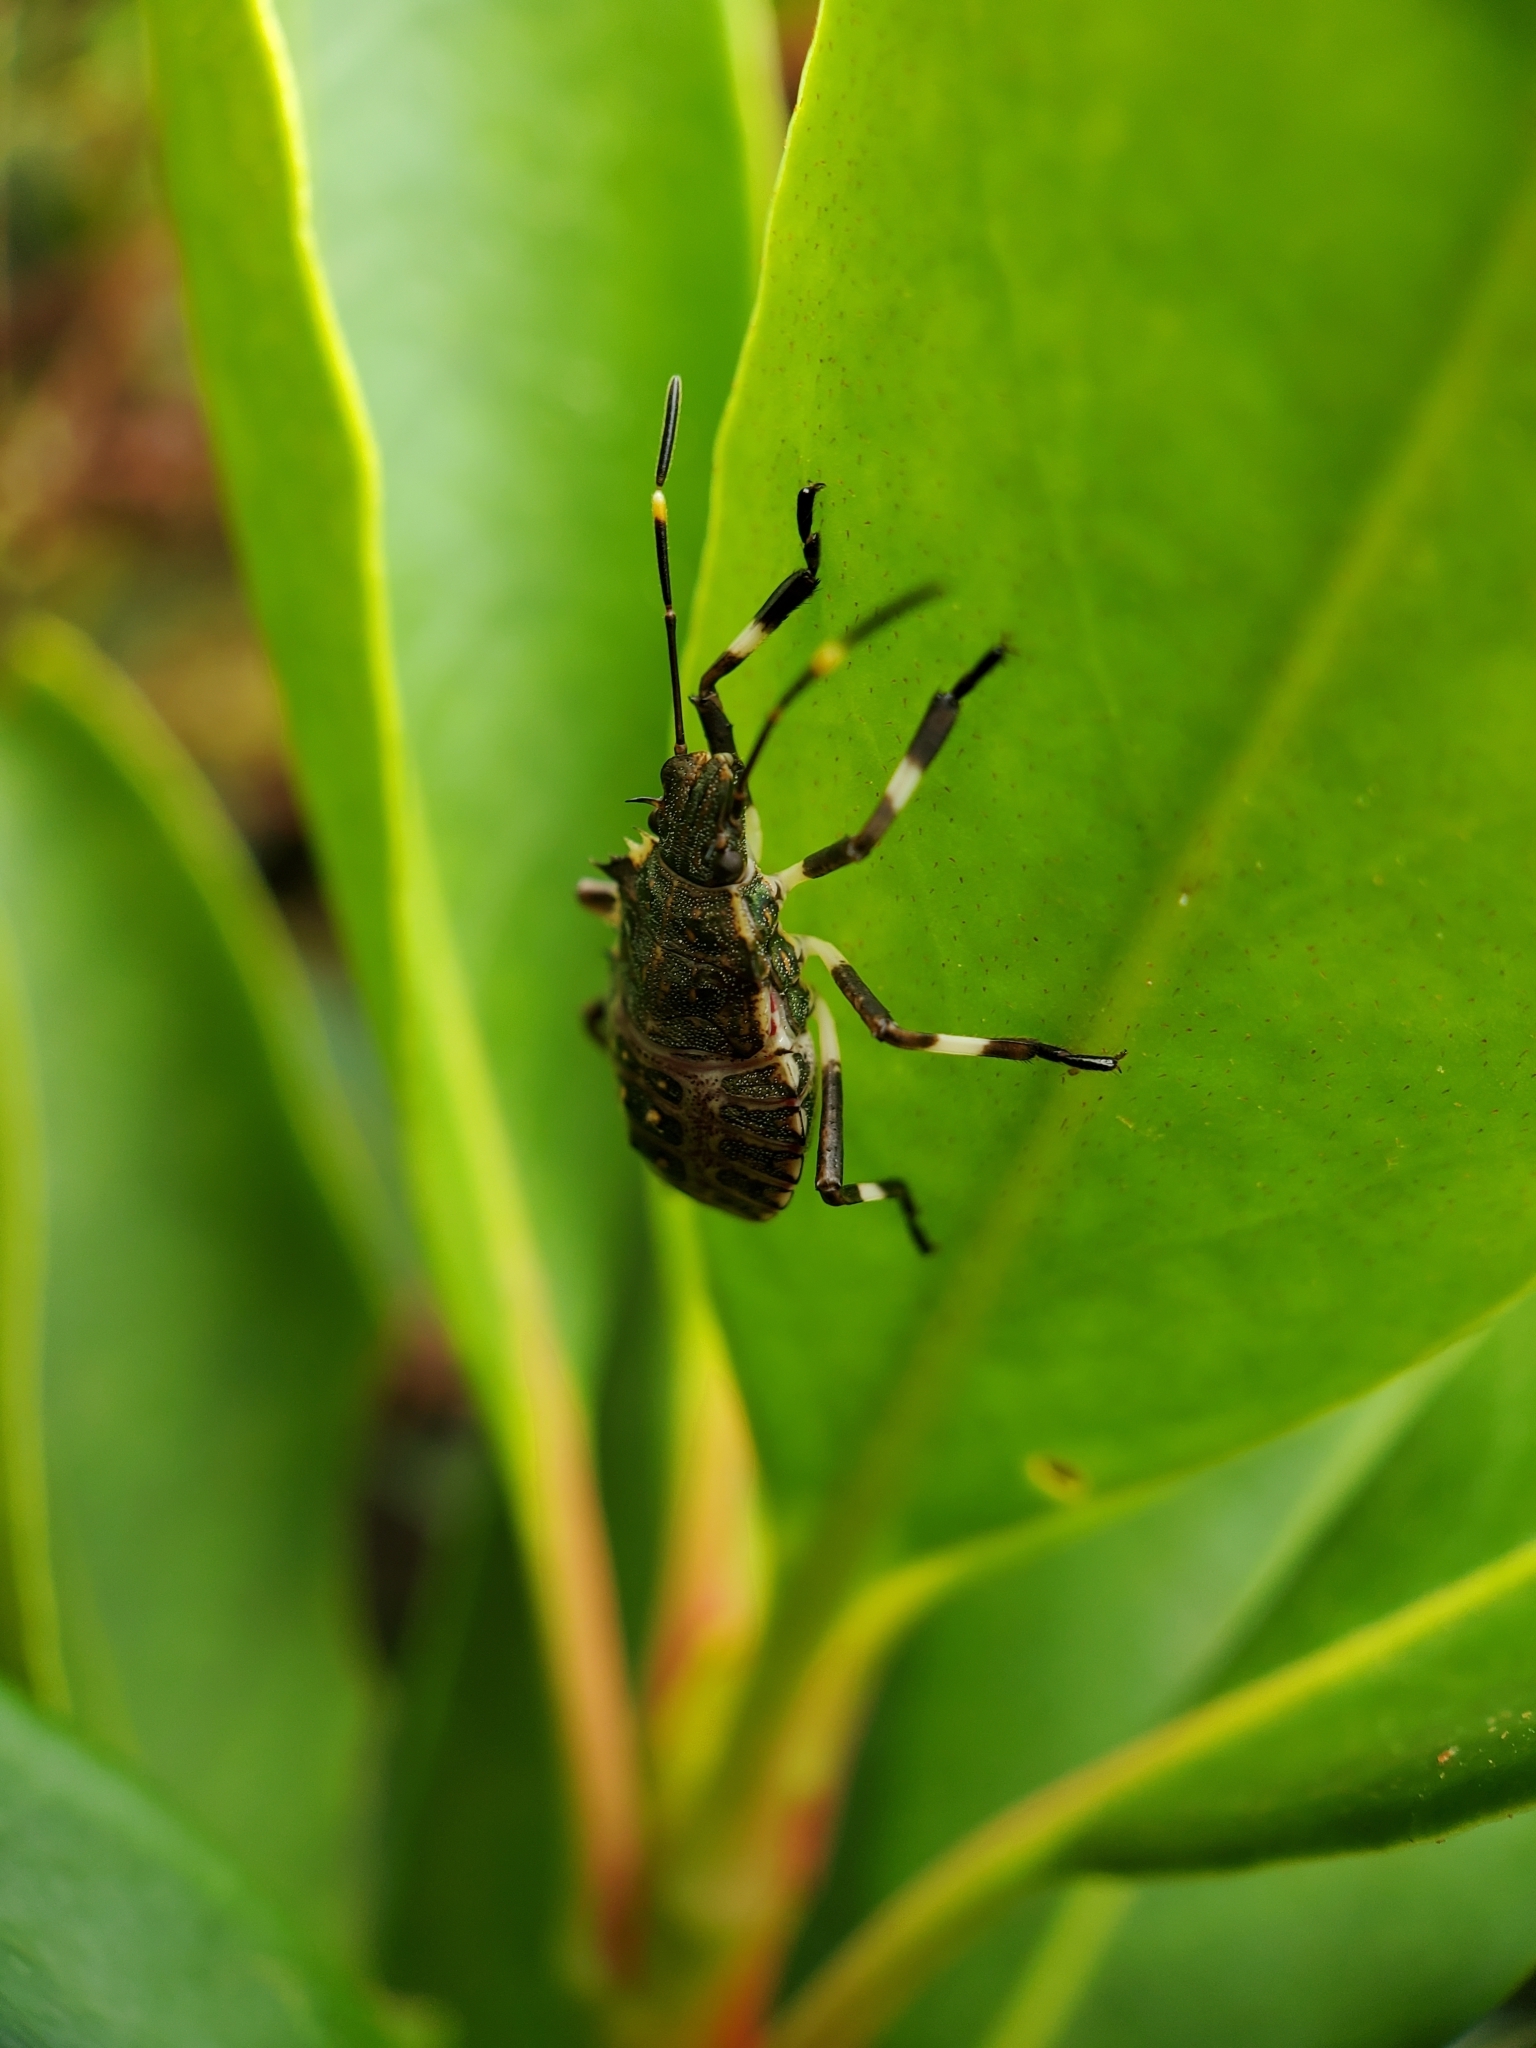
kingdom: Animalia
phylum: Arthropoda
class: Insecta
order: Hemiptera
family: Pentatomidae
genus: Halyomorpha
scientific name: Halyomorpha halys
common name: Brown marmorated stink bug
